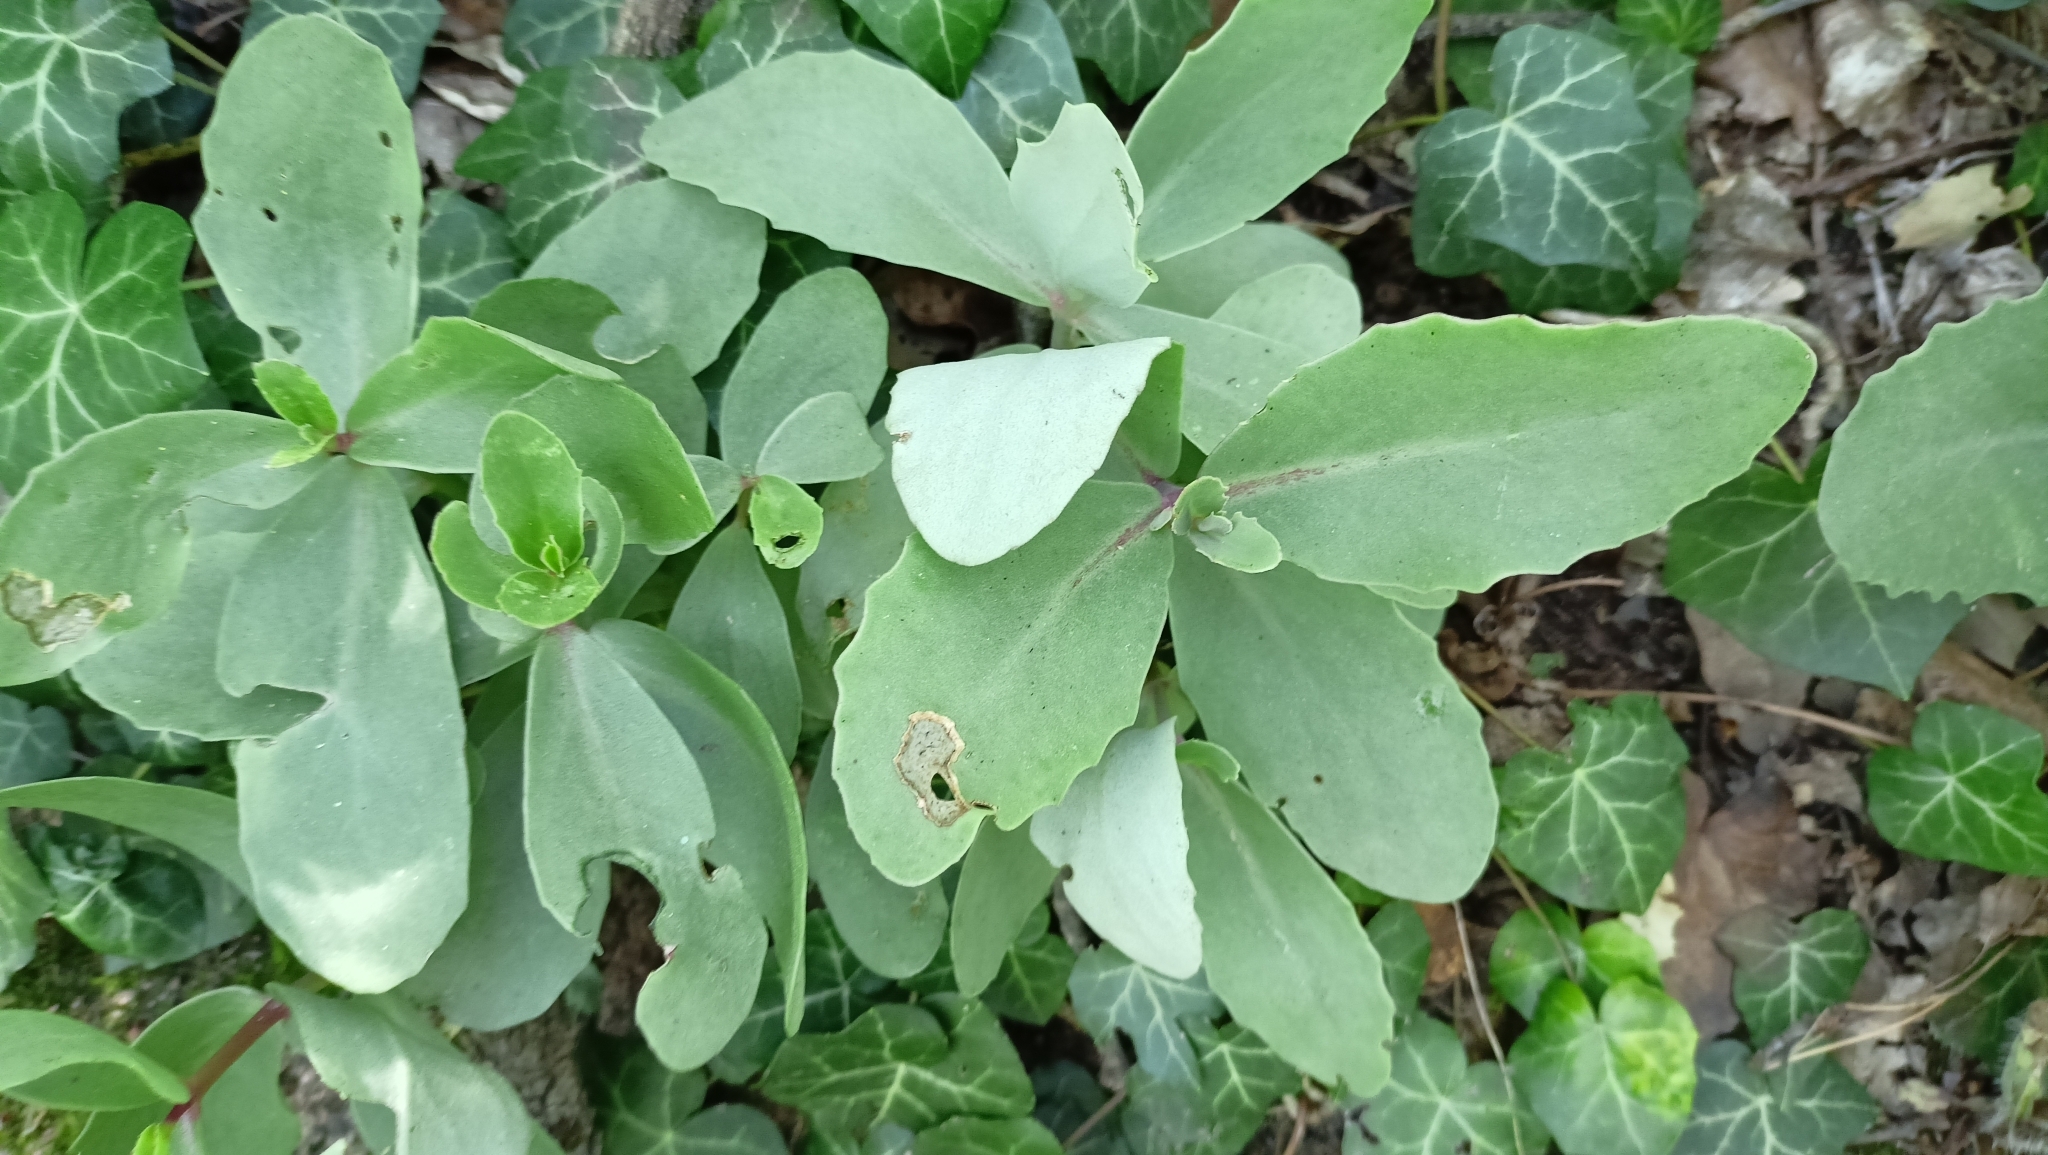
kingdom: Plantae
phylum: Tracheophyta
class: Magnoliopsida
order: Saxifragales
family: Crassulaceae
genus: Hylotelephium
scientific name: Hylotelephium maximum
